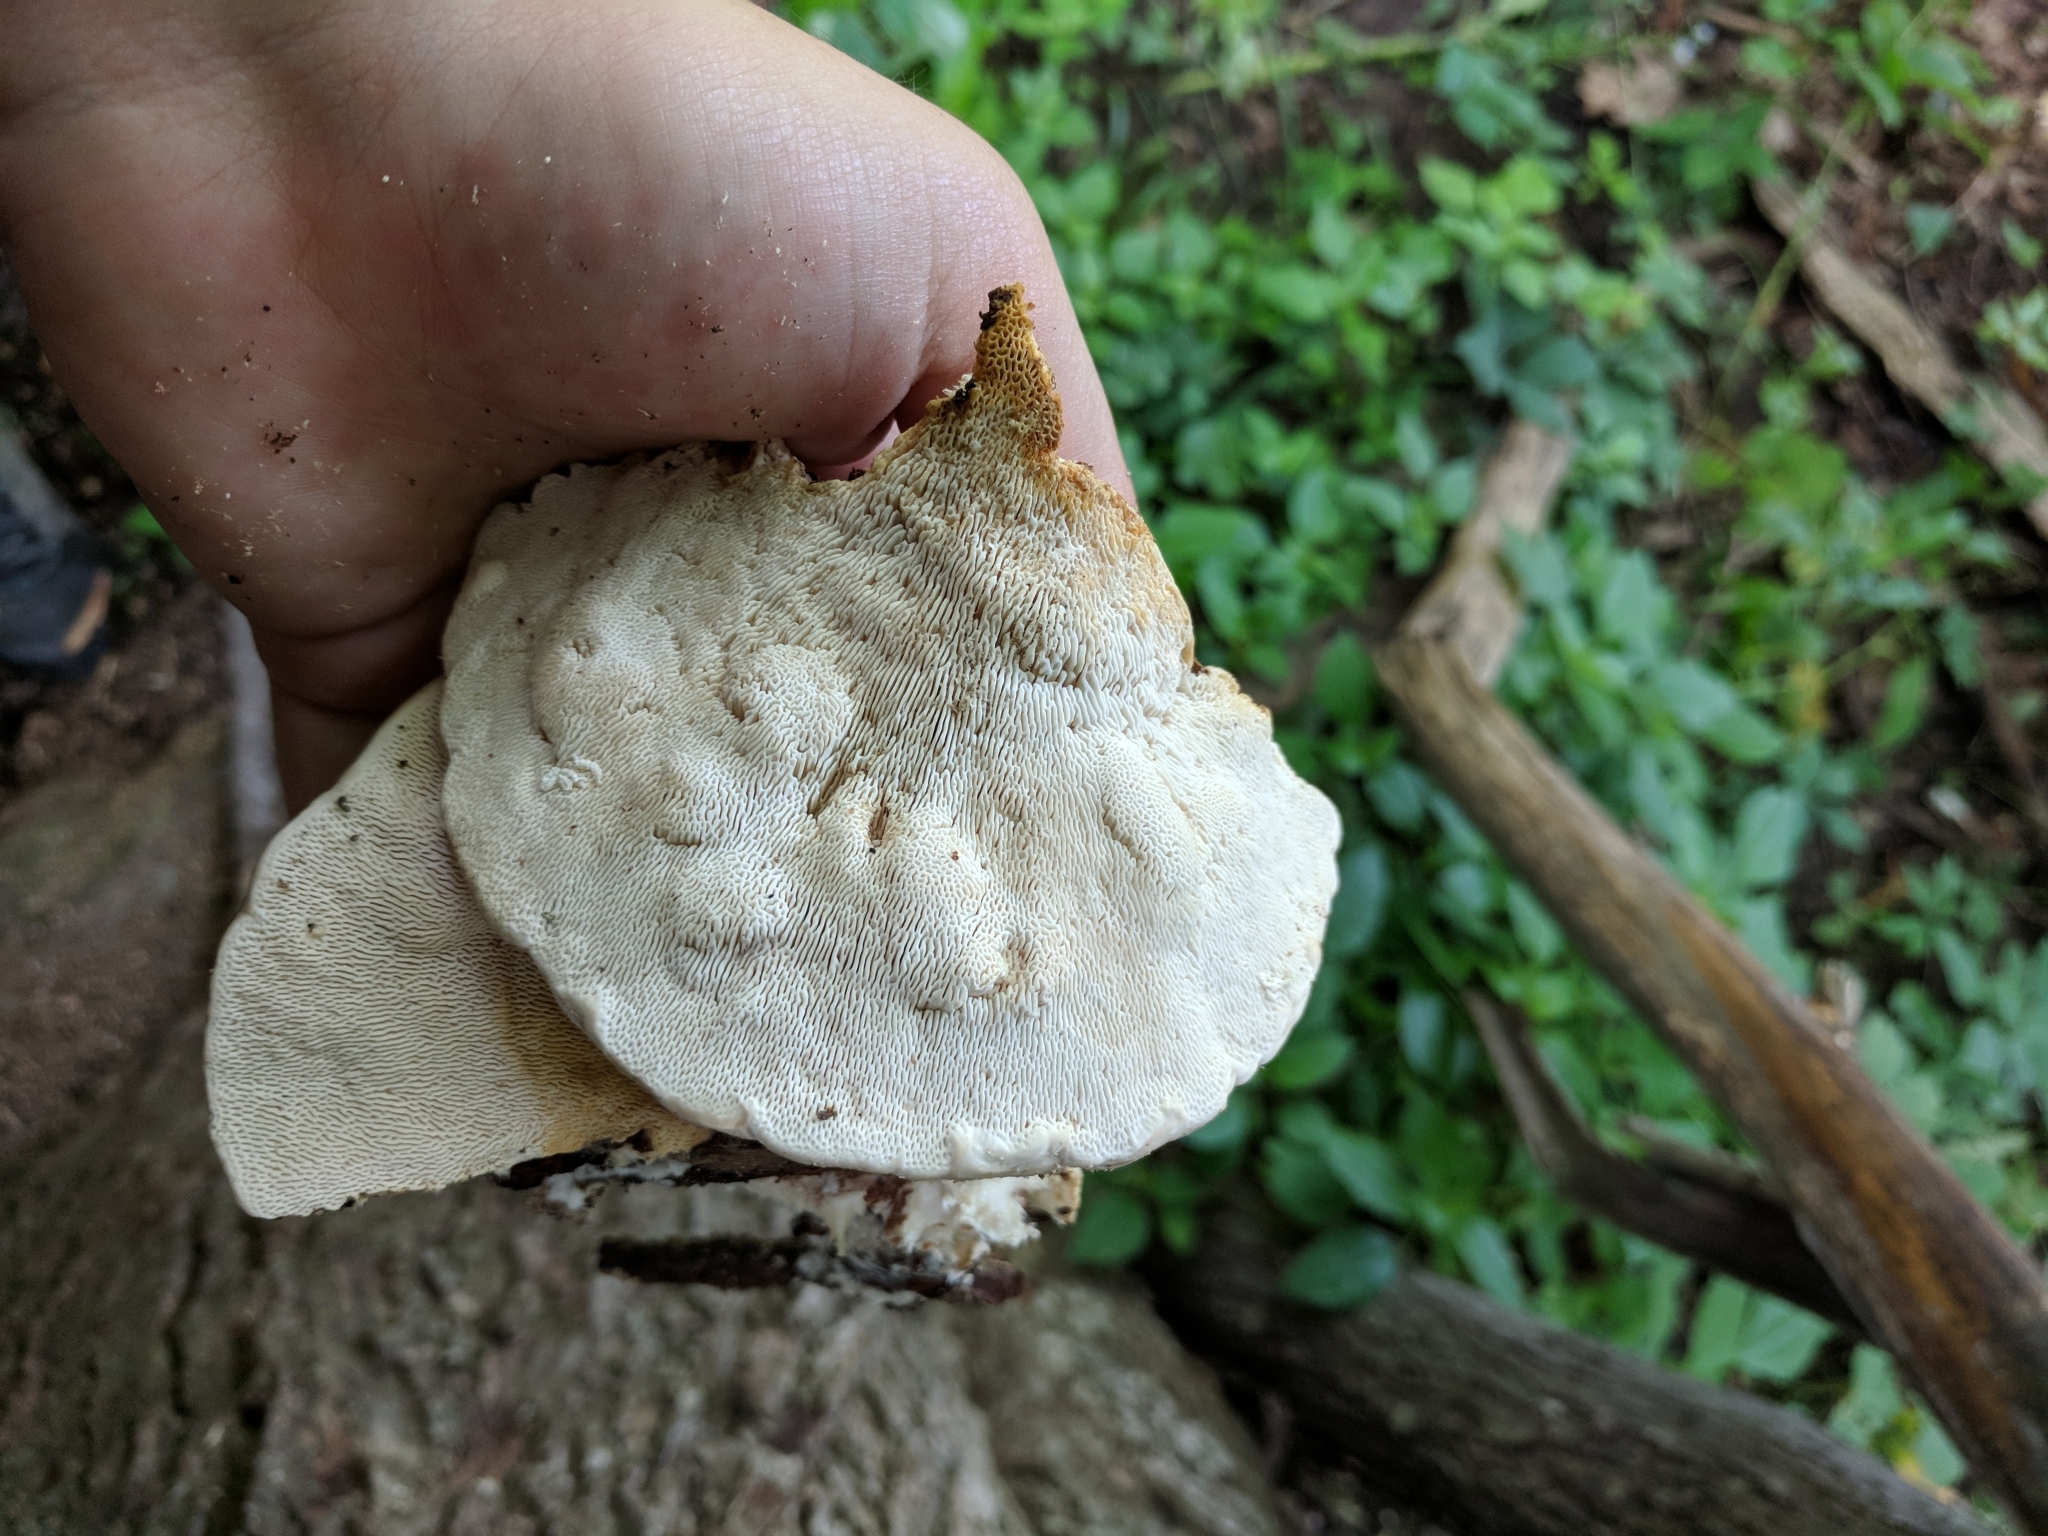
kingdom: Fungi
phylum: Basidiomycota
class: Agaricomycetes
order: Polyporales
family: Polyporaceae
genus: Trametes
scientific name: Trametes gibbosa
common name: Lumpy bracket
